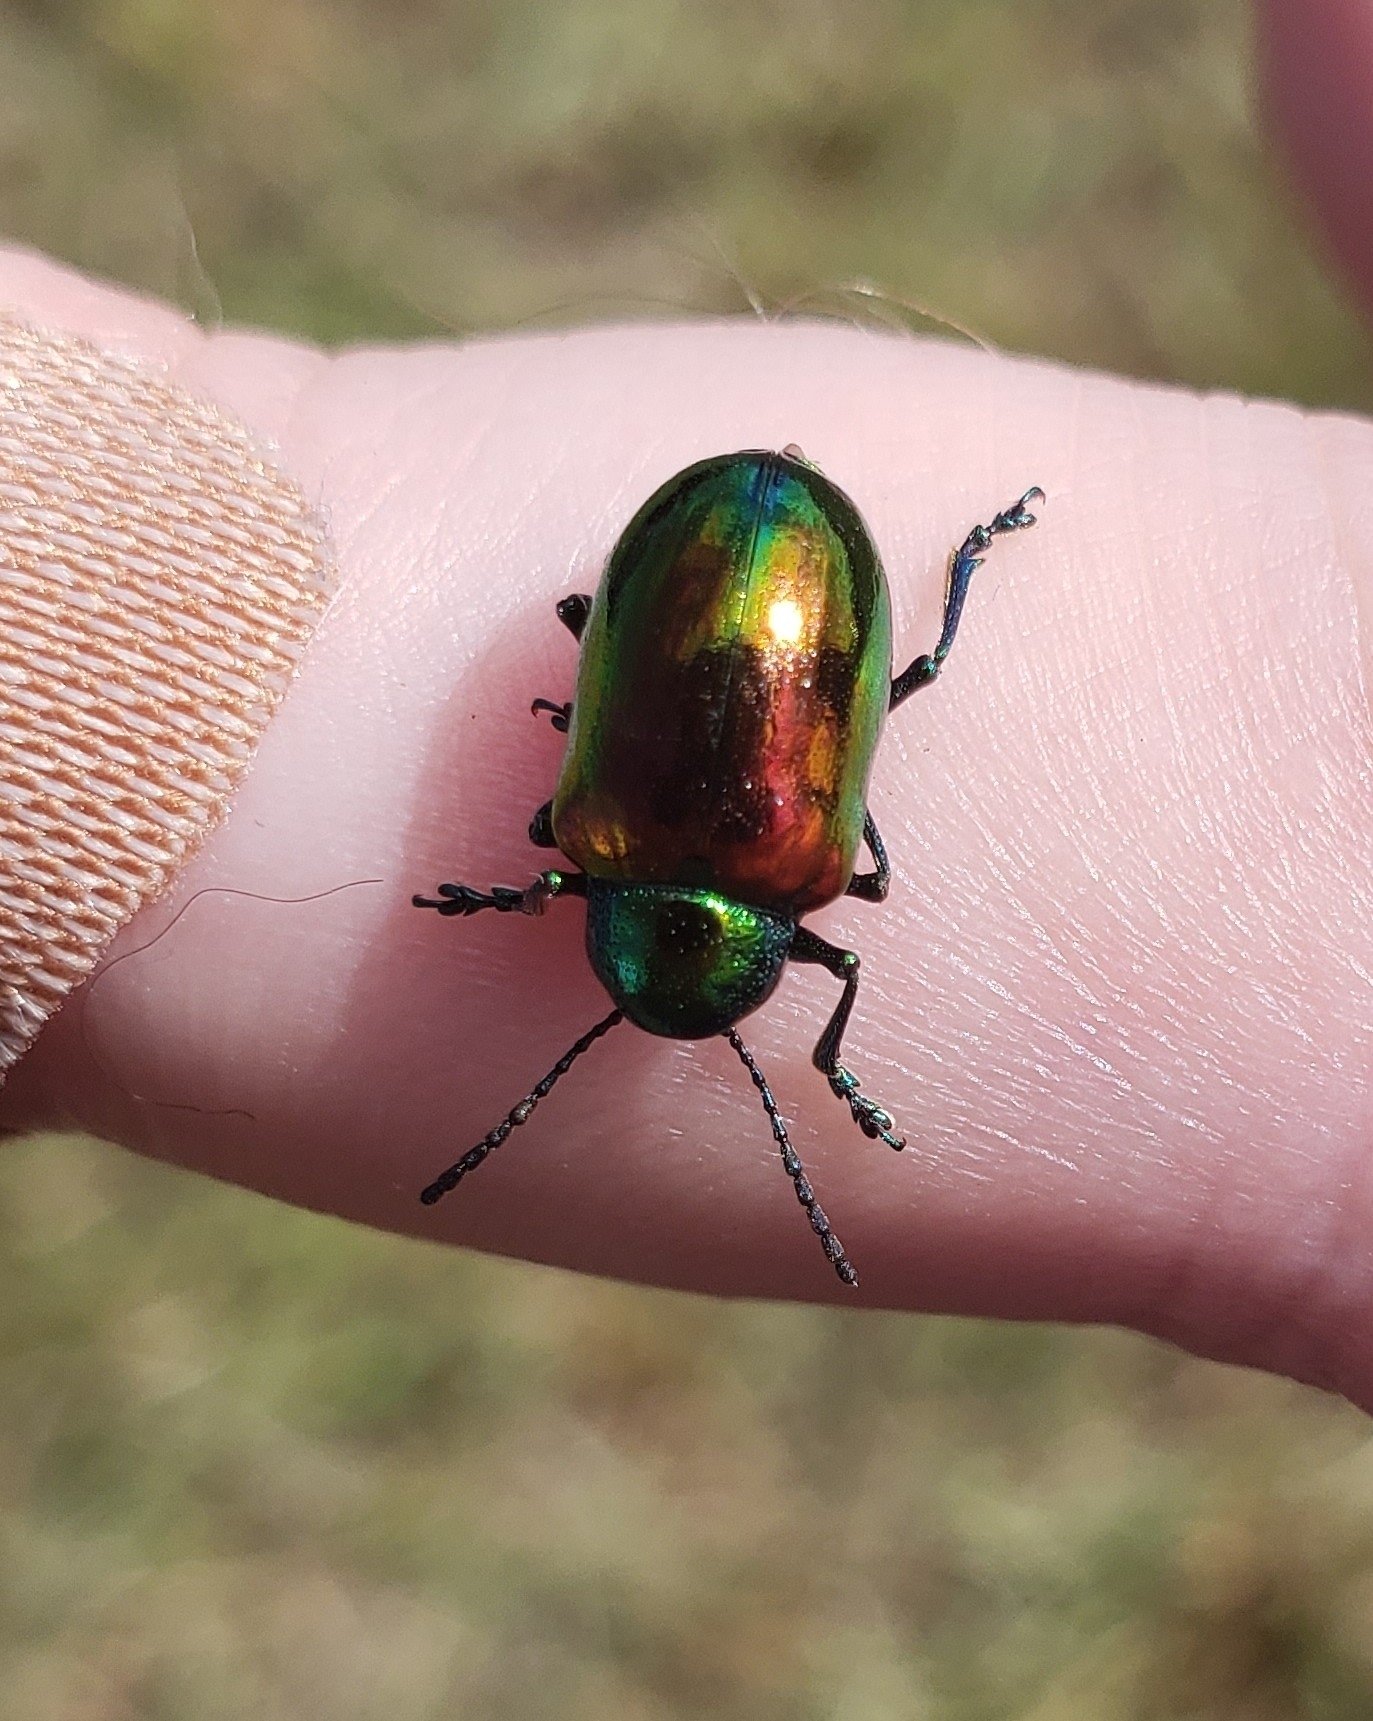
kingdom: Animalia
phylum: Arthropoda
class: Insecta
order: Coleoptera
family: Chrysomelidae
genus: Chrysochus
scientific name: Chrysochus auratus
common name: Dogbane leaf beetle
